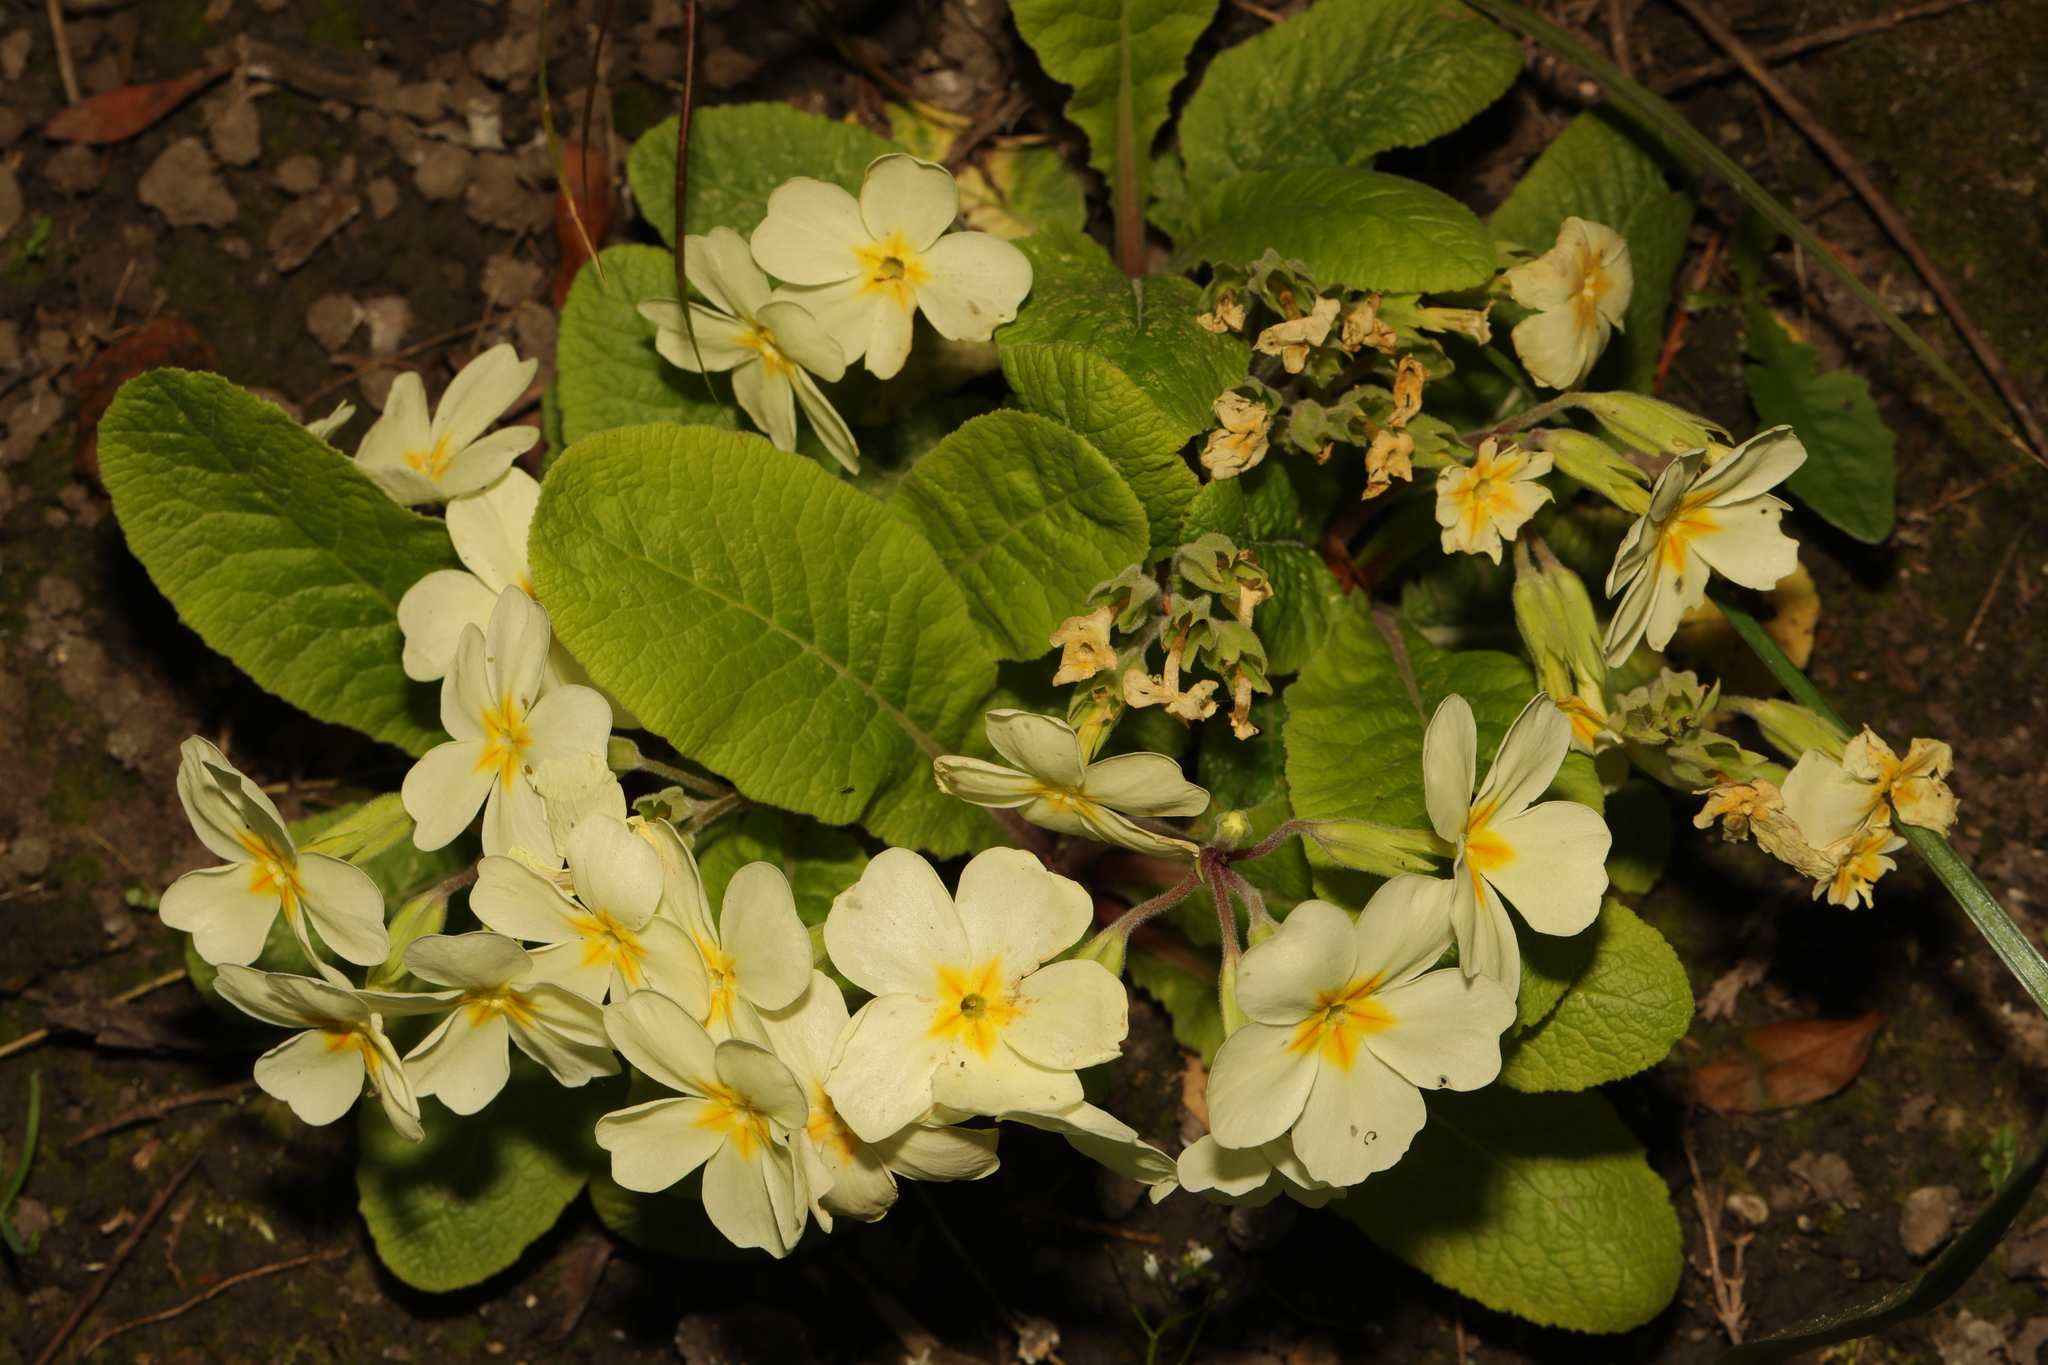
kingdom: Plantae
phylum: Tracheophyta
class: Magnoliopsida
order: Ericales
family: Primulaceae
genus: Primula
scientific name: Primula vulgaris
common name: Primrose
